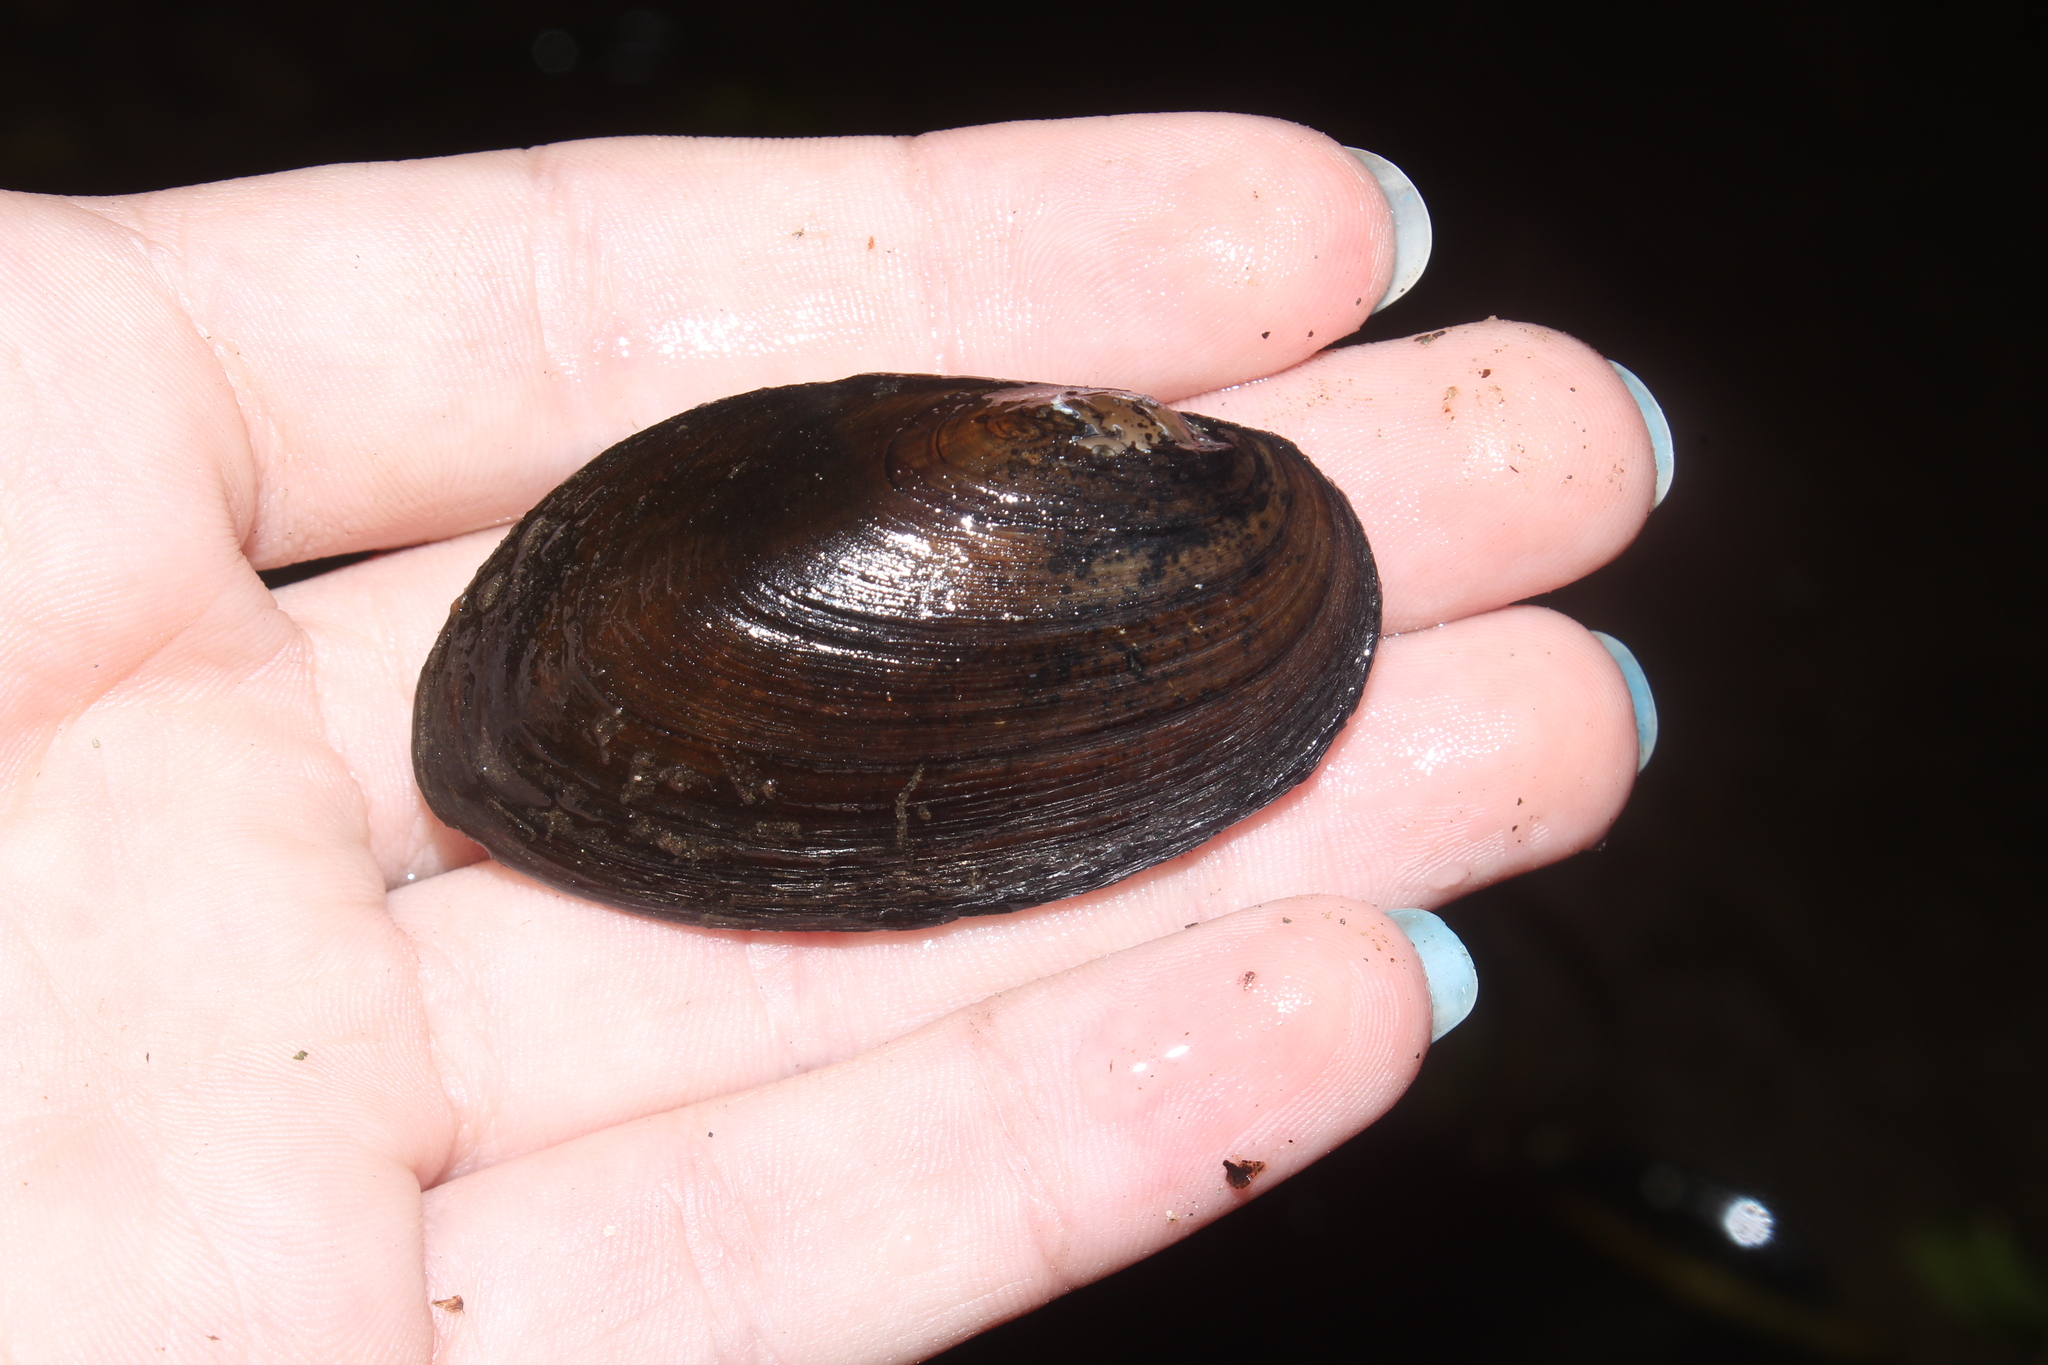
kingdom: Animalia
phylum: Mollusca
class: Bivalvia
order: Unionida
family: Unionidae
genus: Elliptio
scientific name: Elliptio complanata
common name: Eastern elliptio
